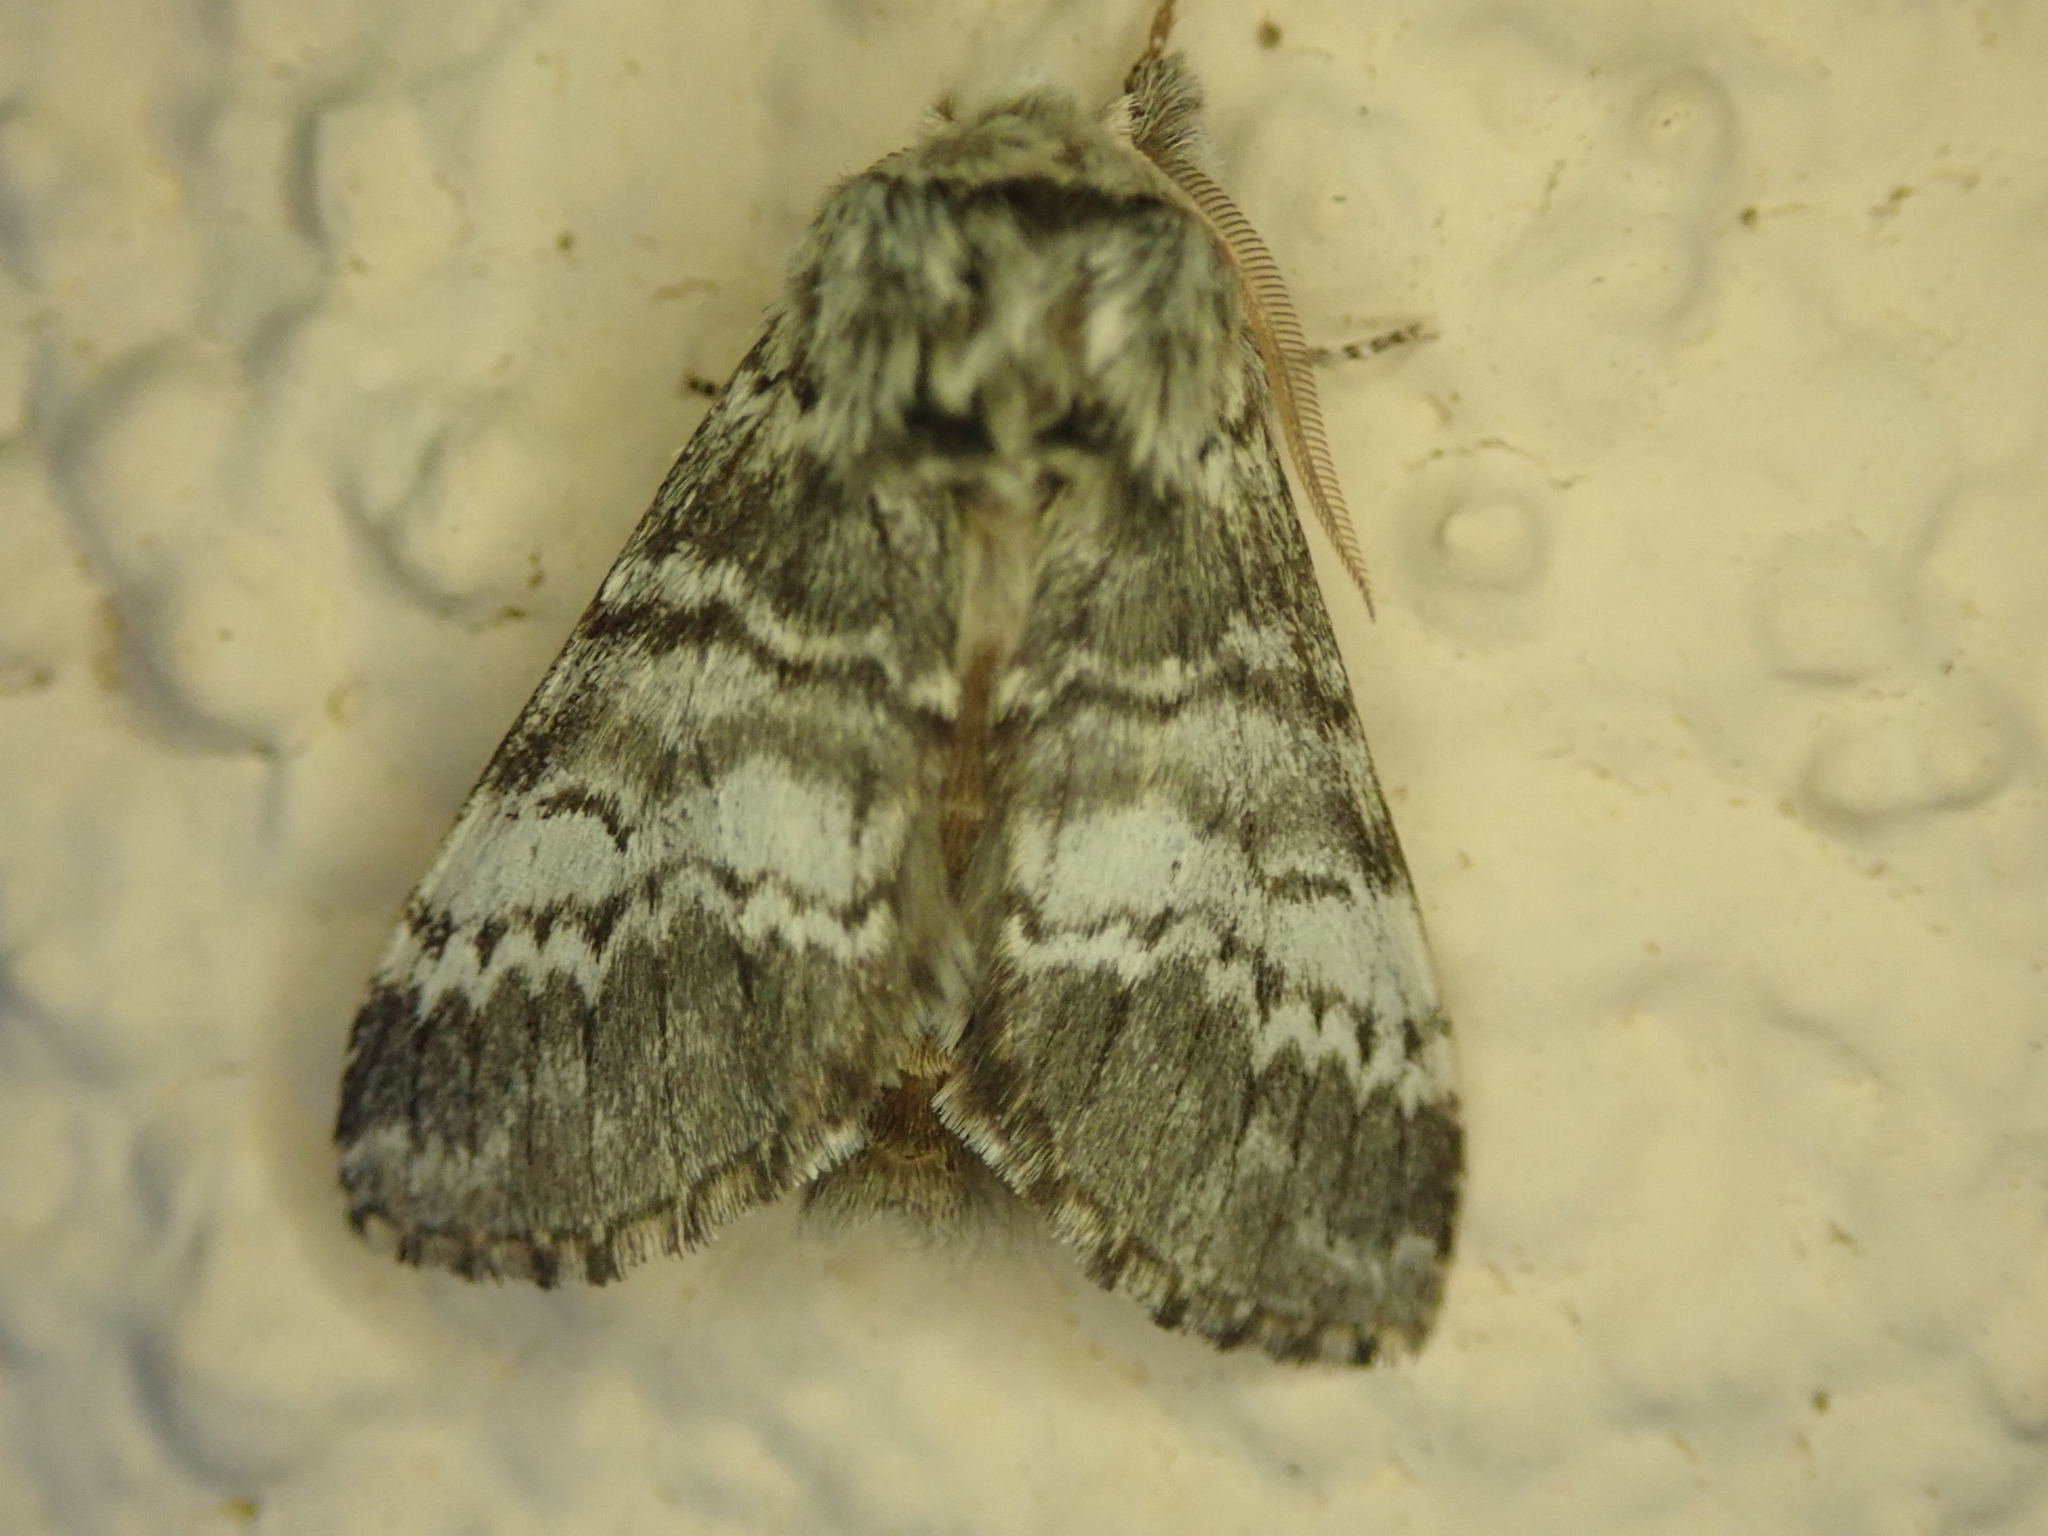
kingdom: Animalia
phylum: Arthropoda
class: Insecta
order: Lepidoptera
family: Notodontidae
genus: Drymonia
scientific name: Drymonia ruficornis
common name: Lunar marbled brown
